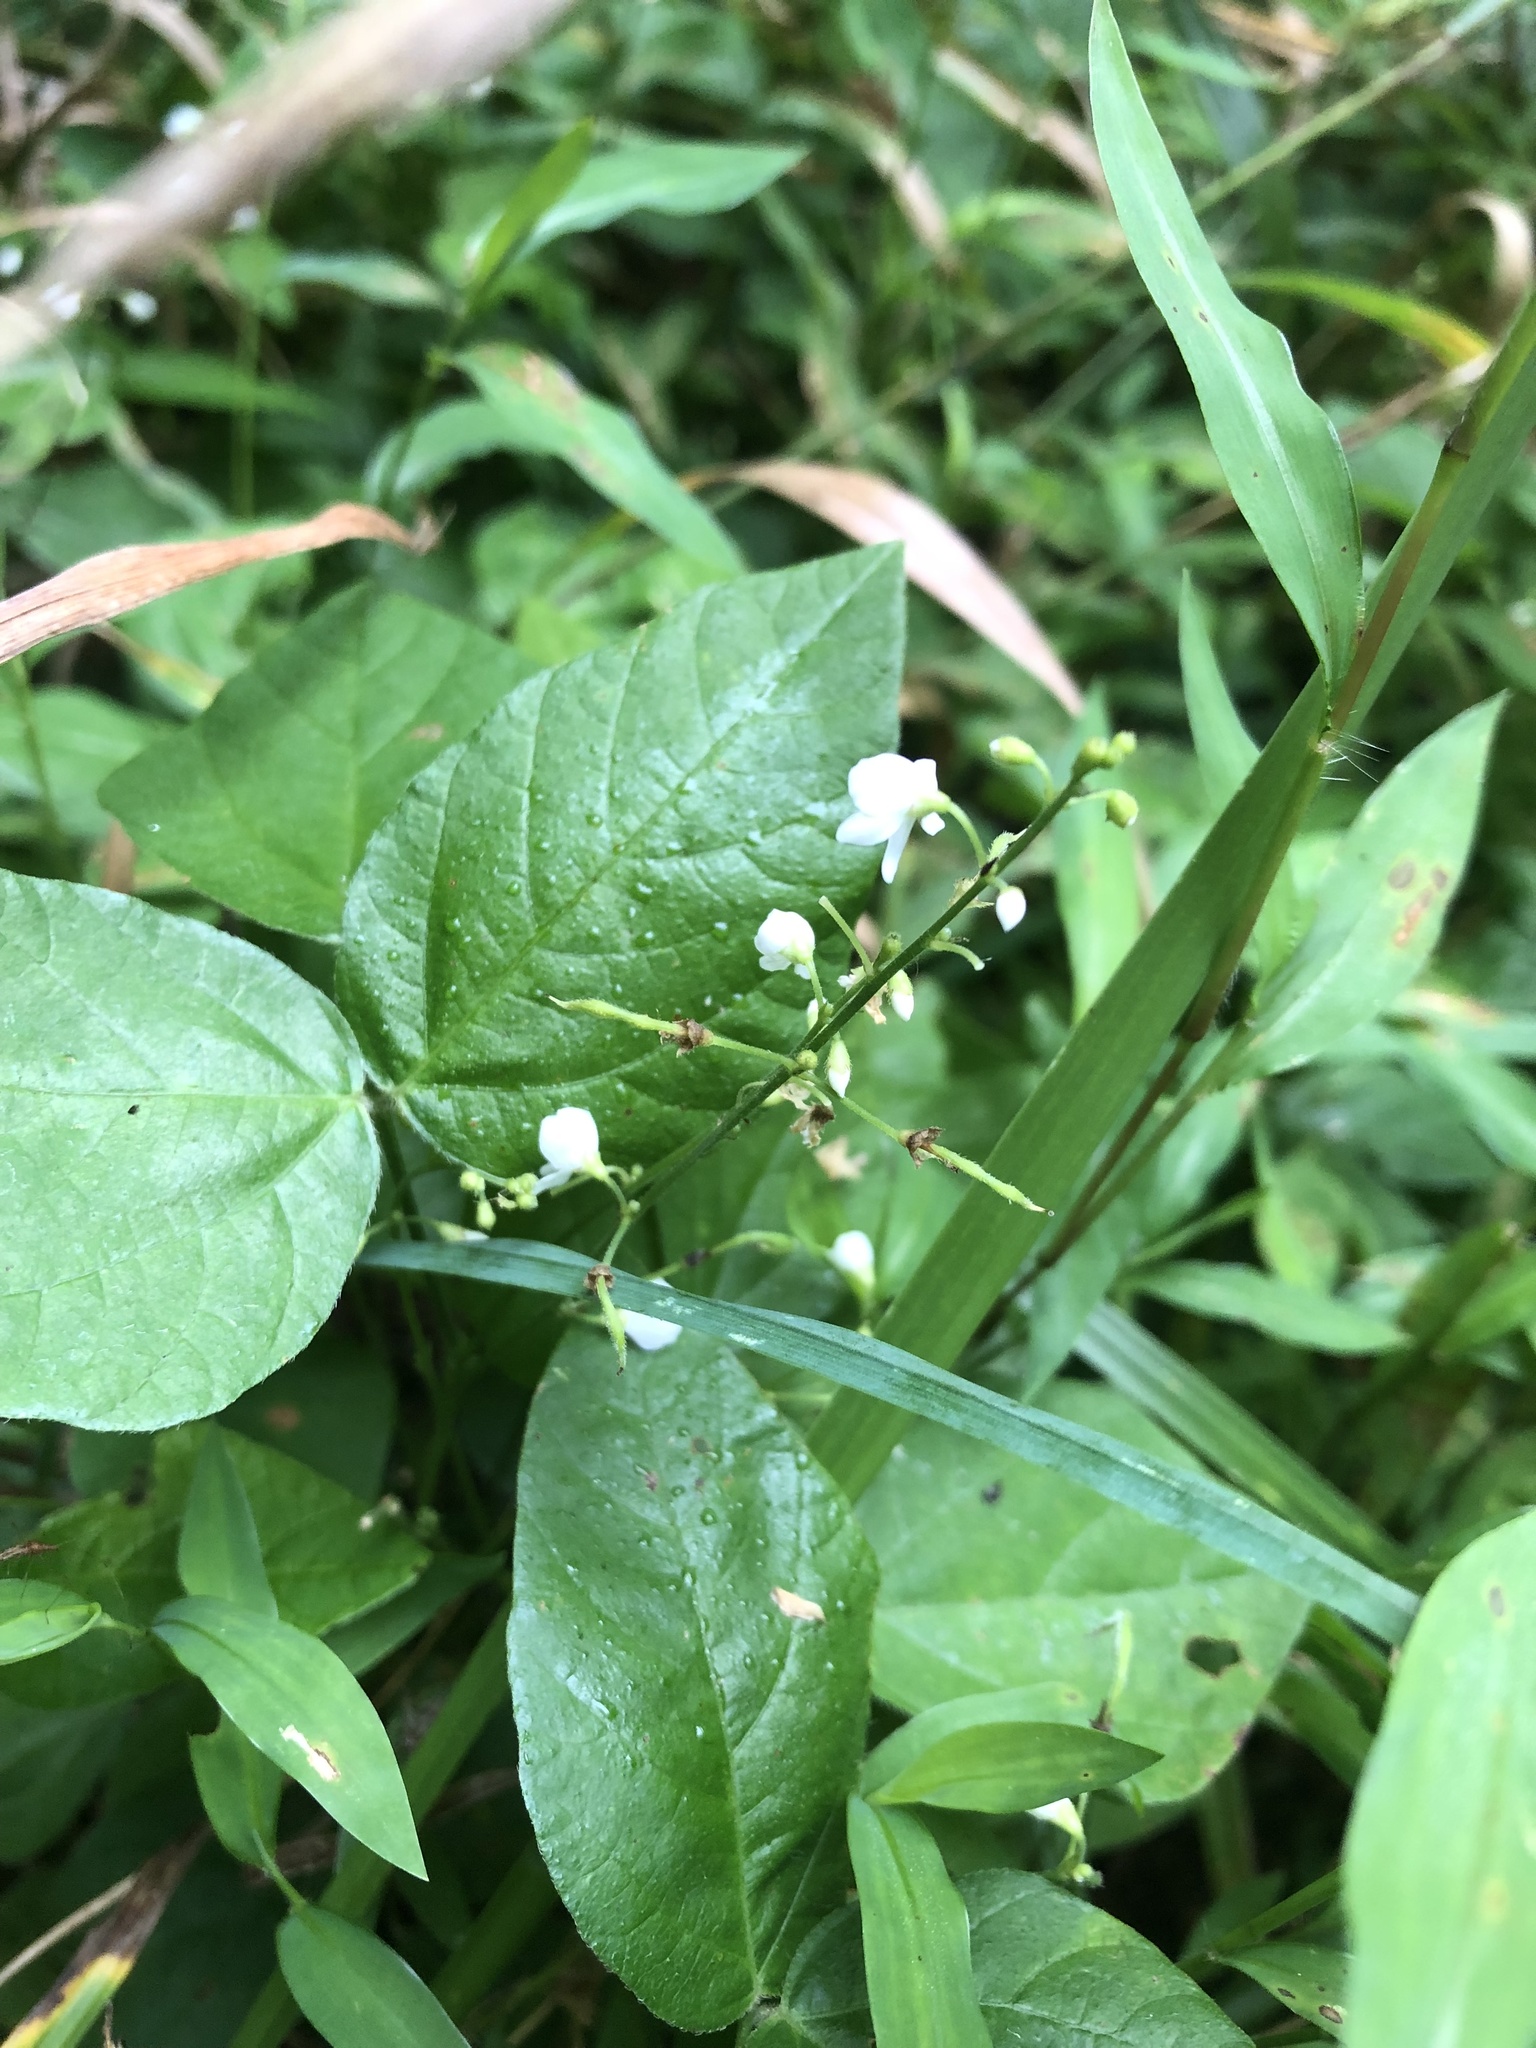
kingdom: Plantae
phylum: Tracheophyta
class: Magnoliopsida
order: Fabales
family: Fabaceae
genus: Hylodesmum
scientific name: Hylodesmum pauciflorum
